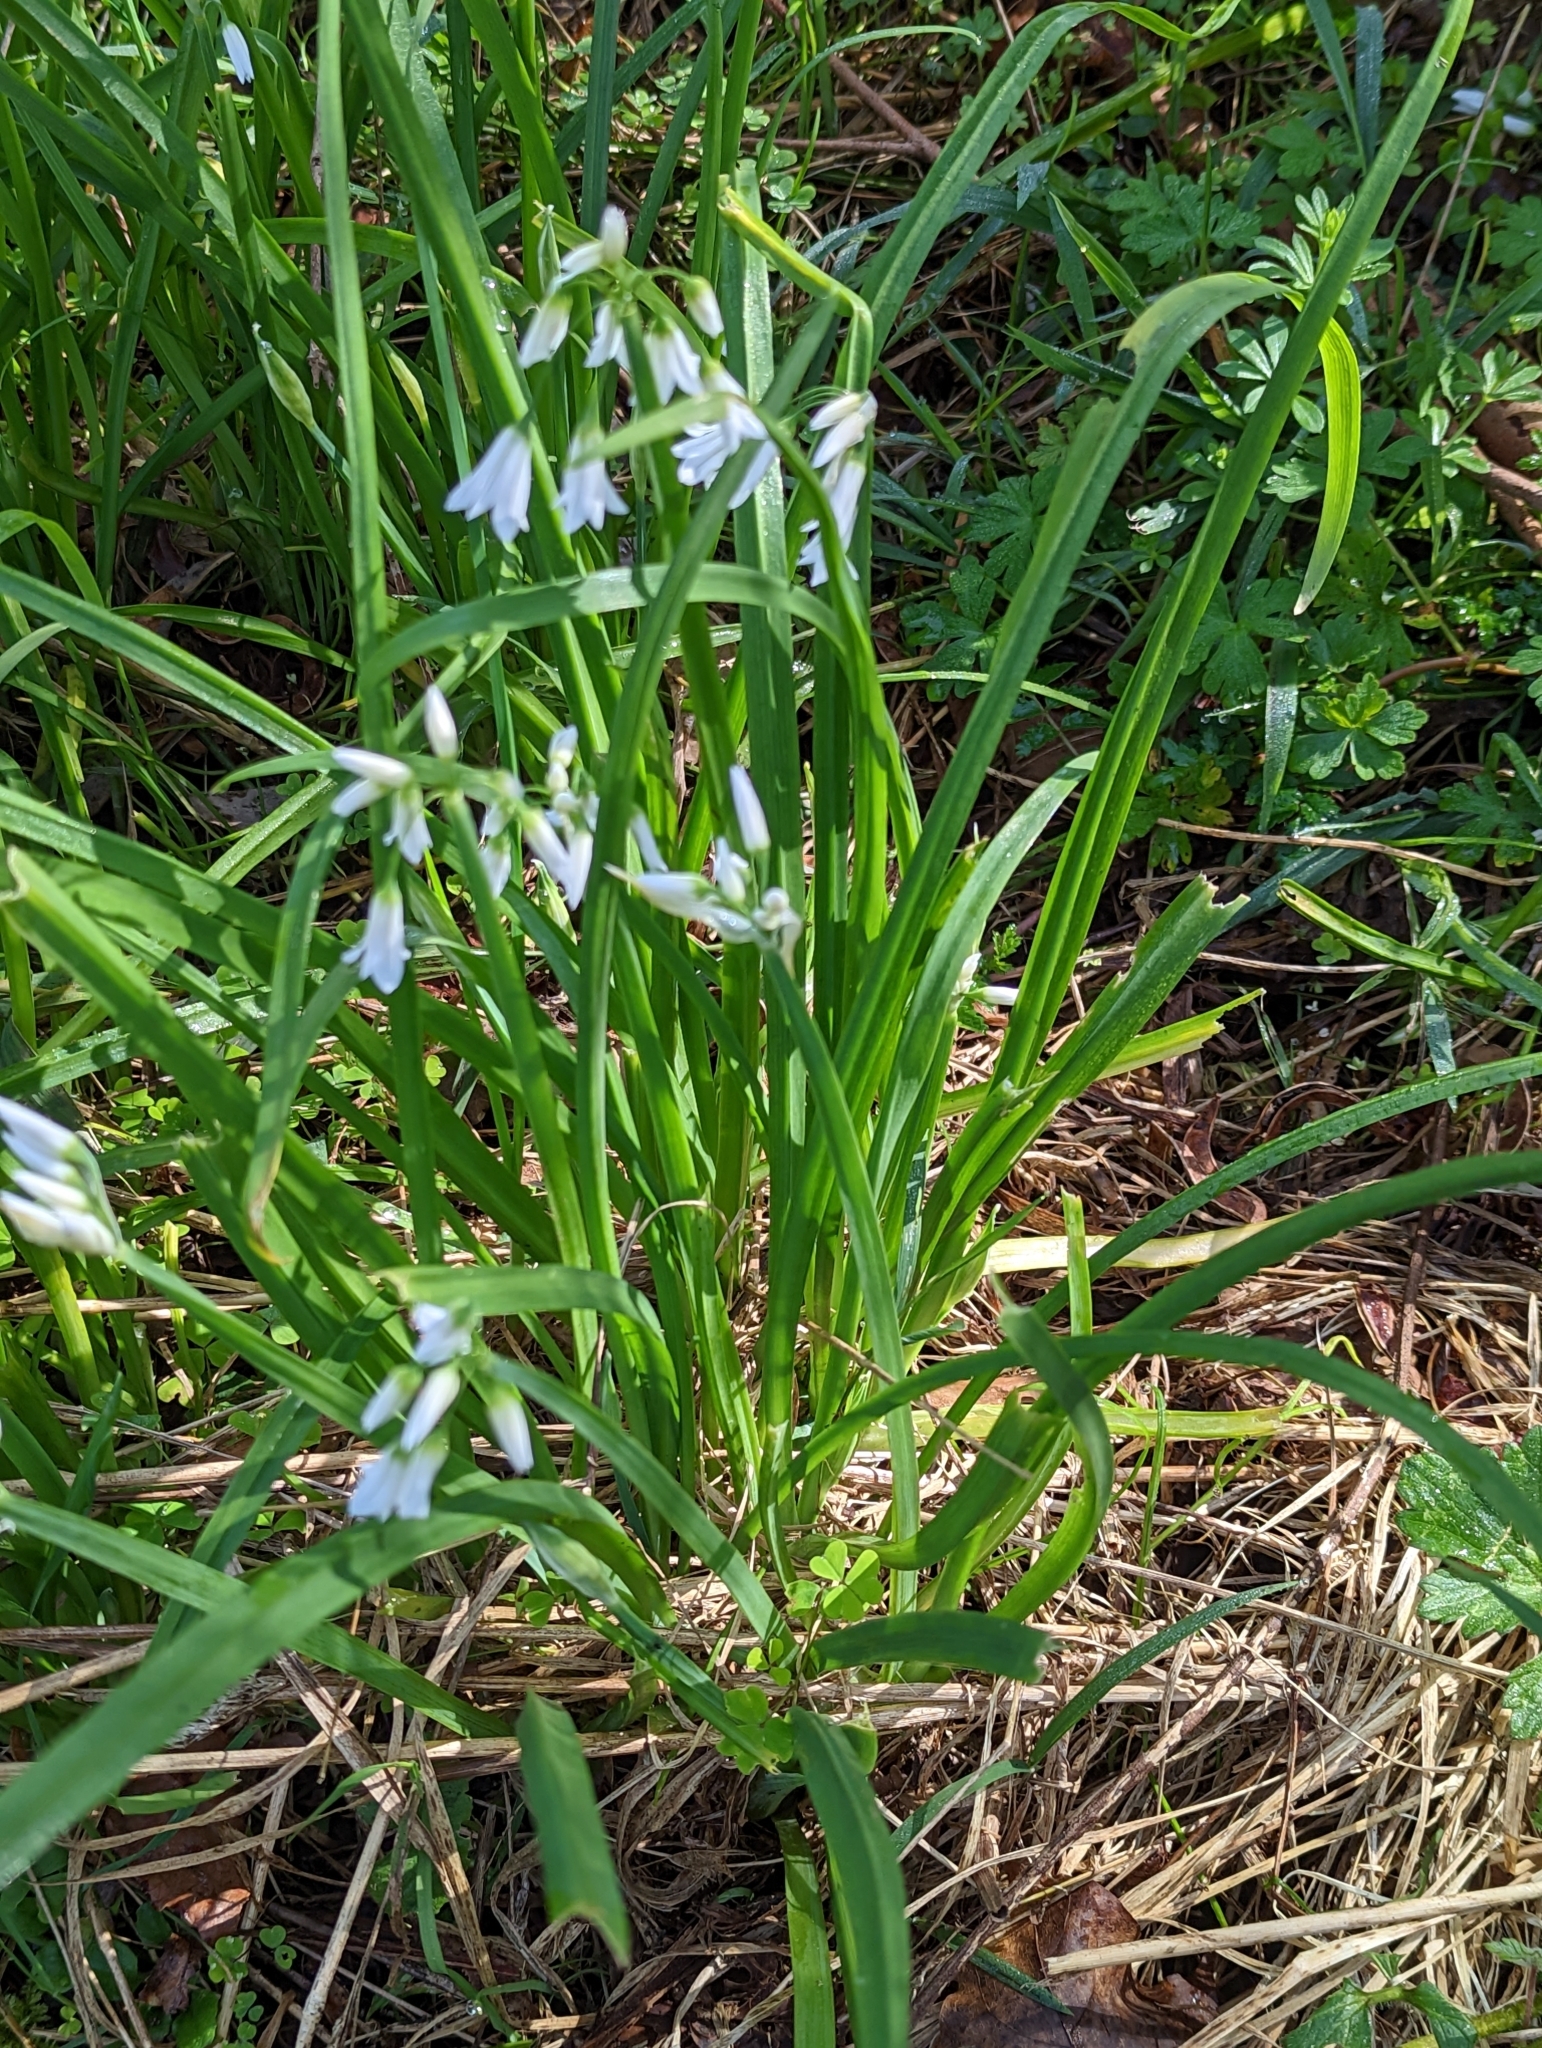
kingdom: Plantae
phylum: Tracheophyta
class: Liliopsida
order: Asparagales
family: Amaryllidaceae
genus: Allium
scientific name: Allium triquetrum
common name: Three-cornered garlic
